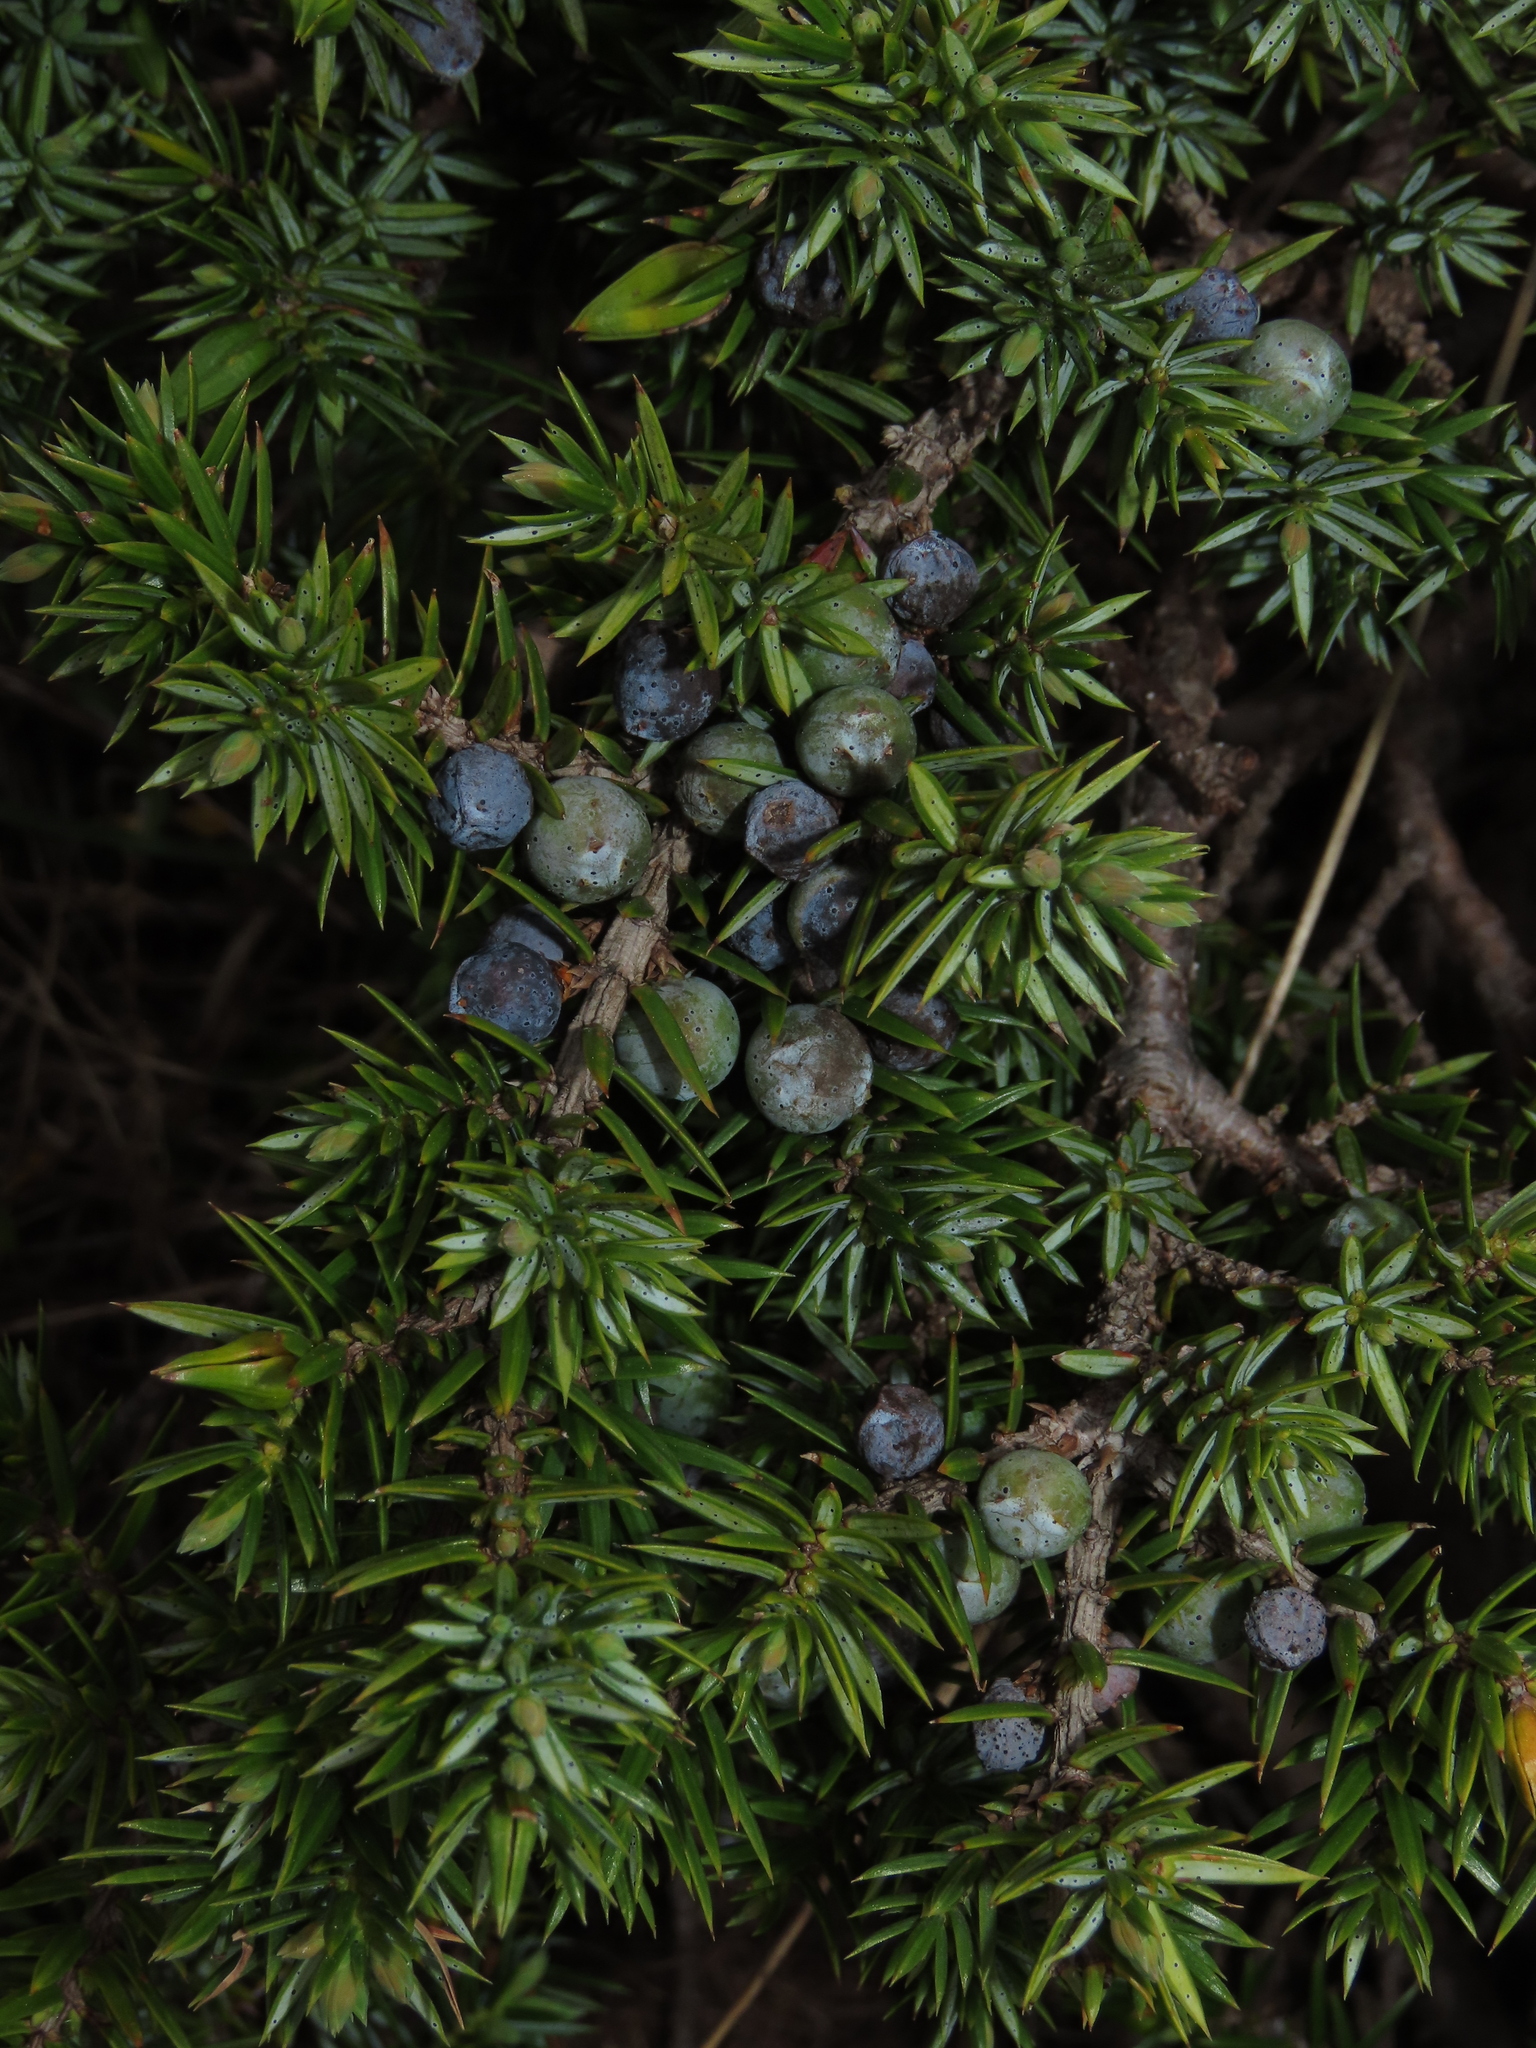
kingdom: Plantae
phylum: Tracheophyta
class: Pinopsida
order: Pinales
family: Cupressaceae
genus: Juniperus
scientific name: Juniperus communis
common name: Common juniper
